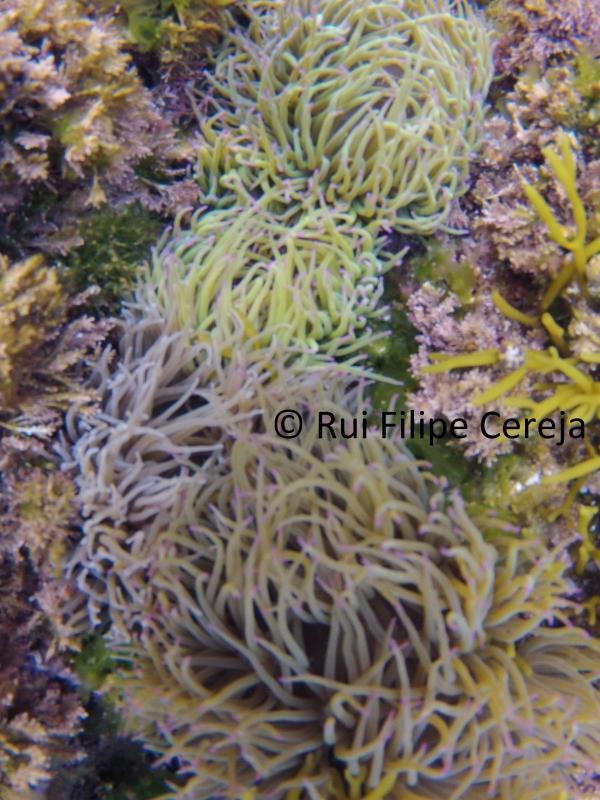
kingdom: Animalia
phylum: Cnidaria
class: Anthozoa
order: Actiniaria
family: Actiniidae
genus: Anemonia
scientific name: Anemonia viridis
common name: Snakelocks anemone
